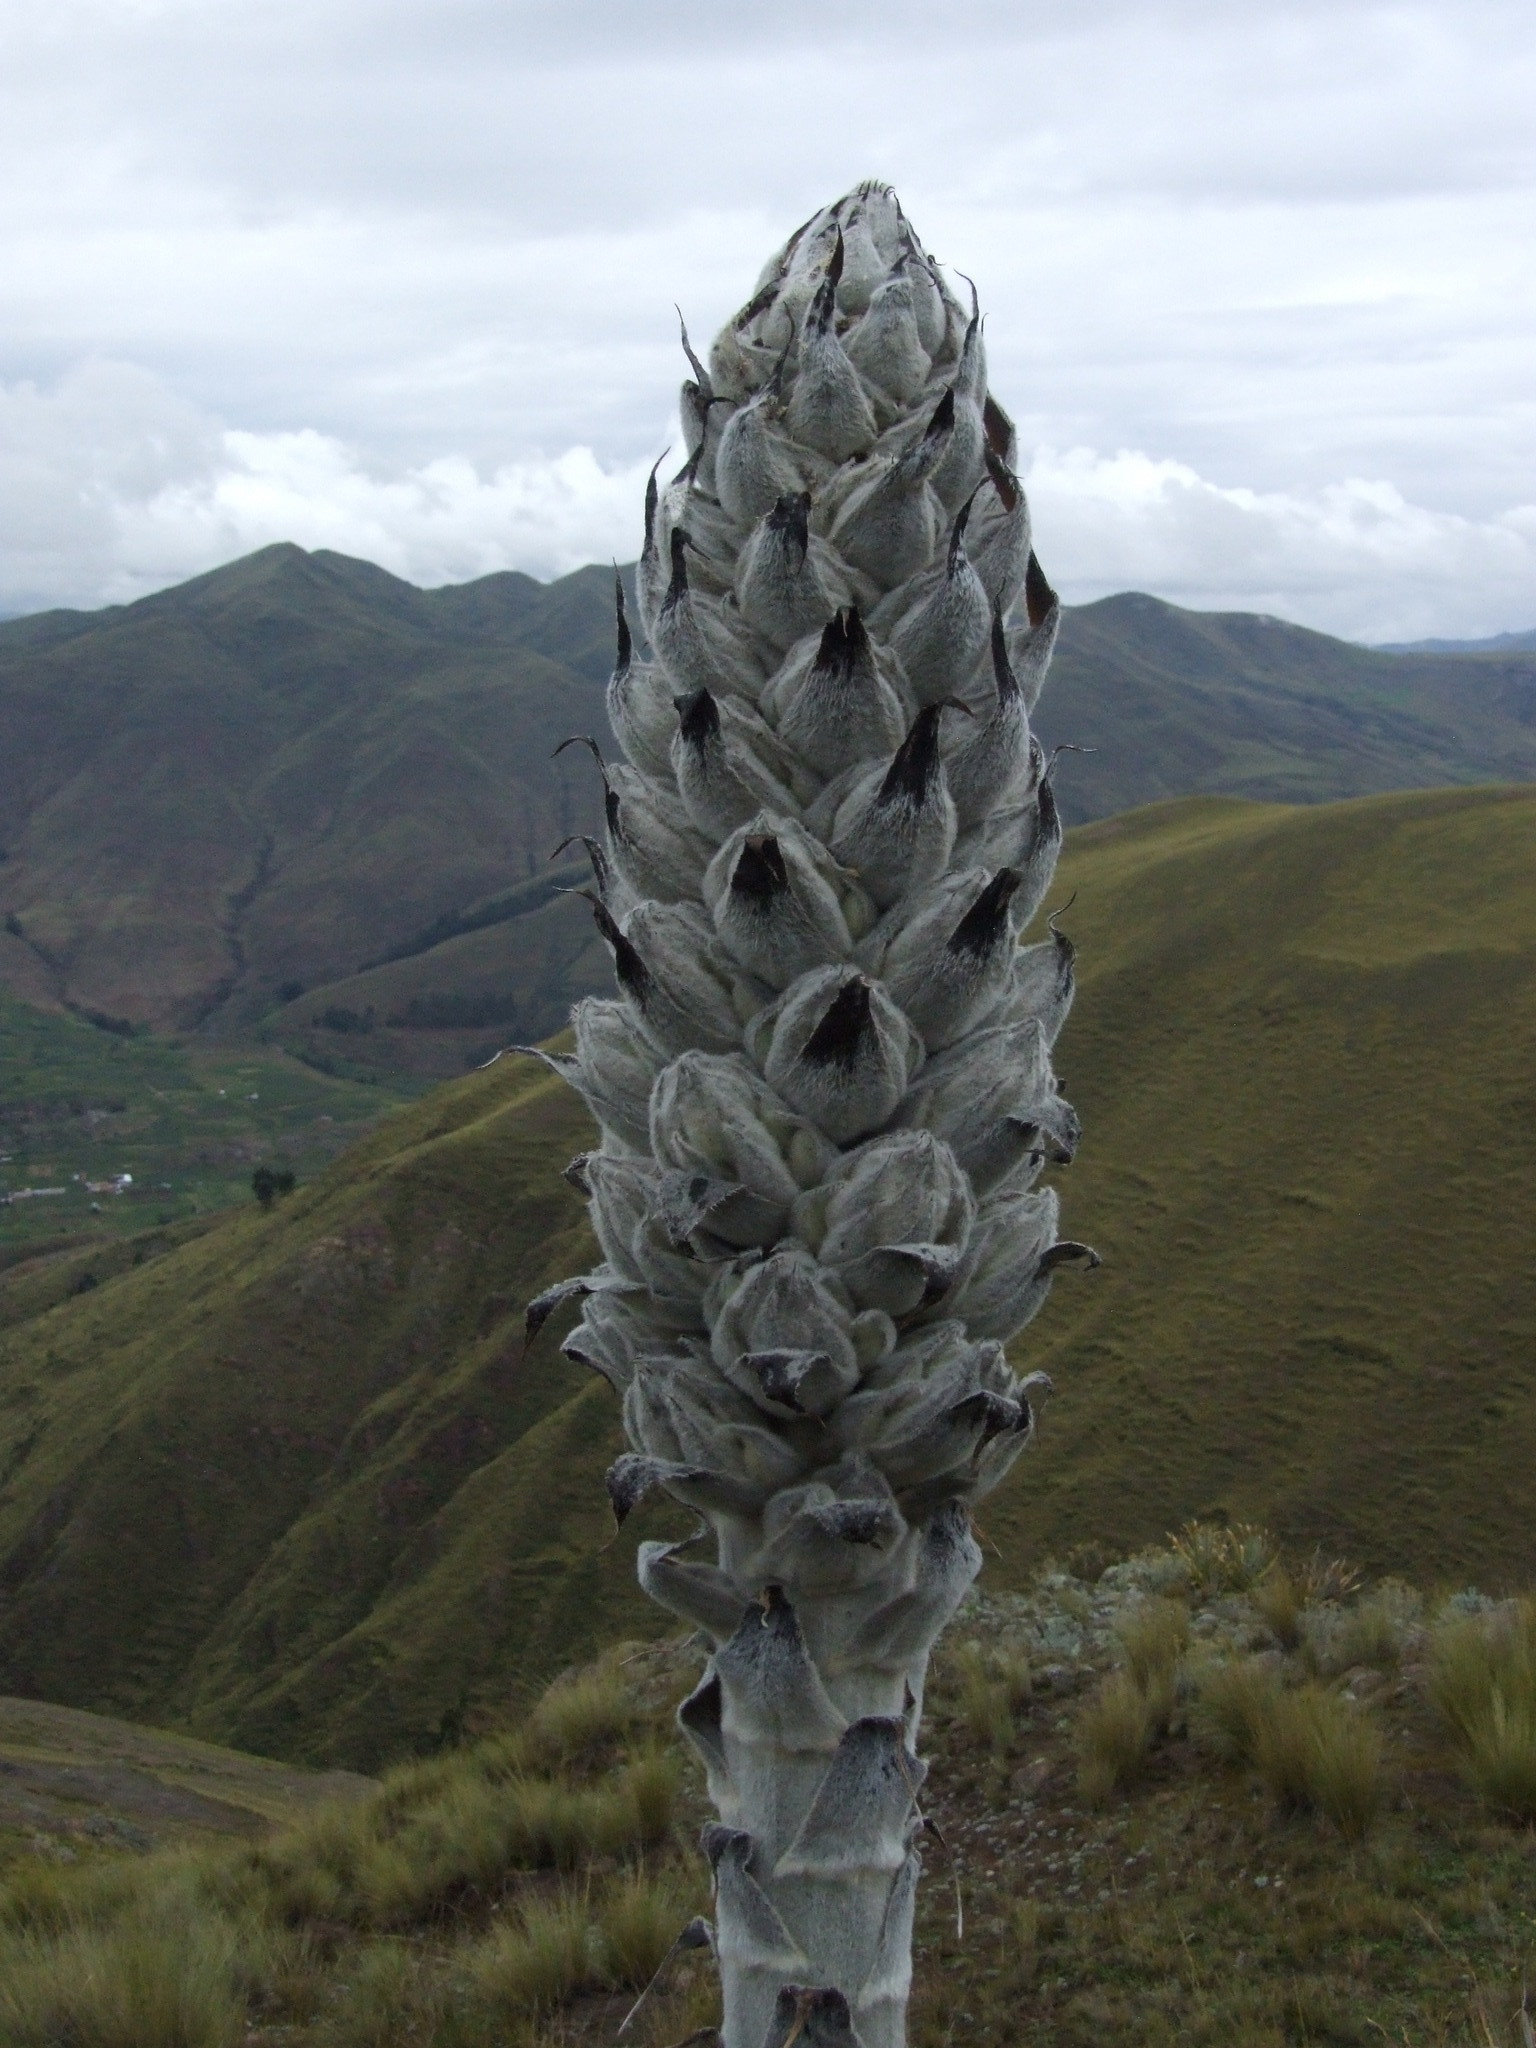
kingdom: Plantae
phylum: Tracheophyta
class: Liliopsida
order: Poales
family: Bromeliaceae
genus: Puya
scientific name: Puya weberbaueri
